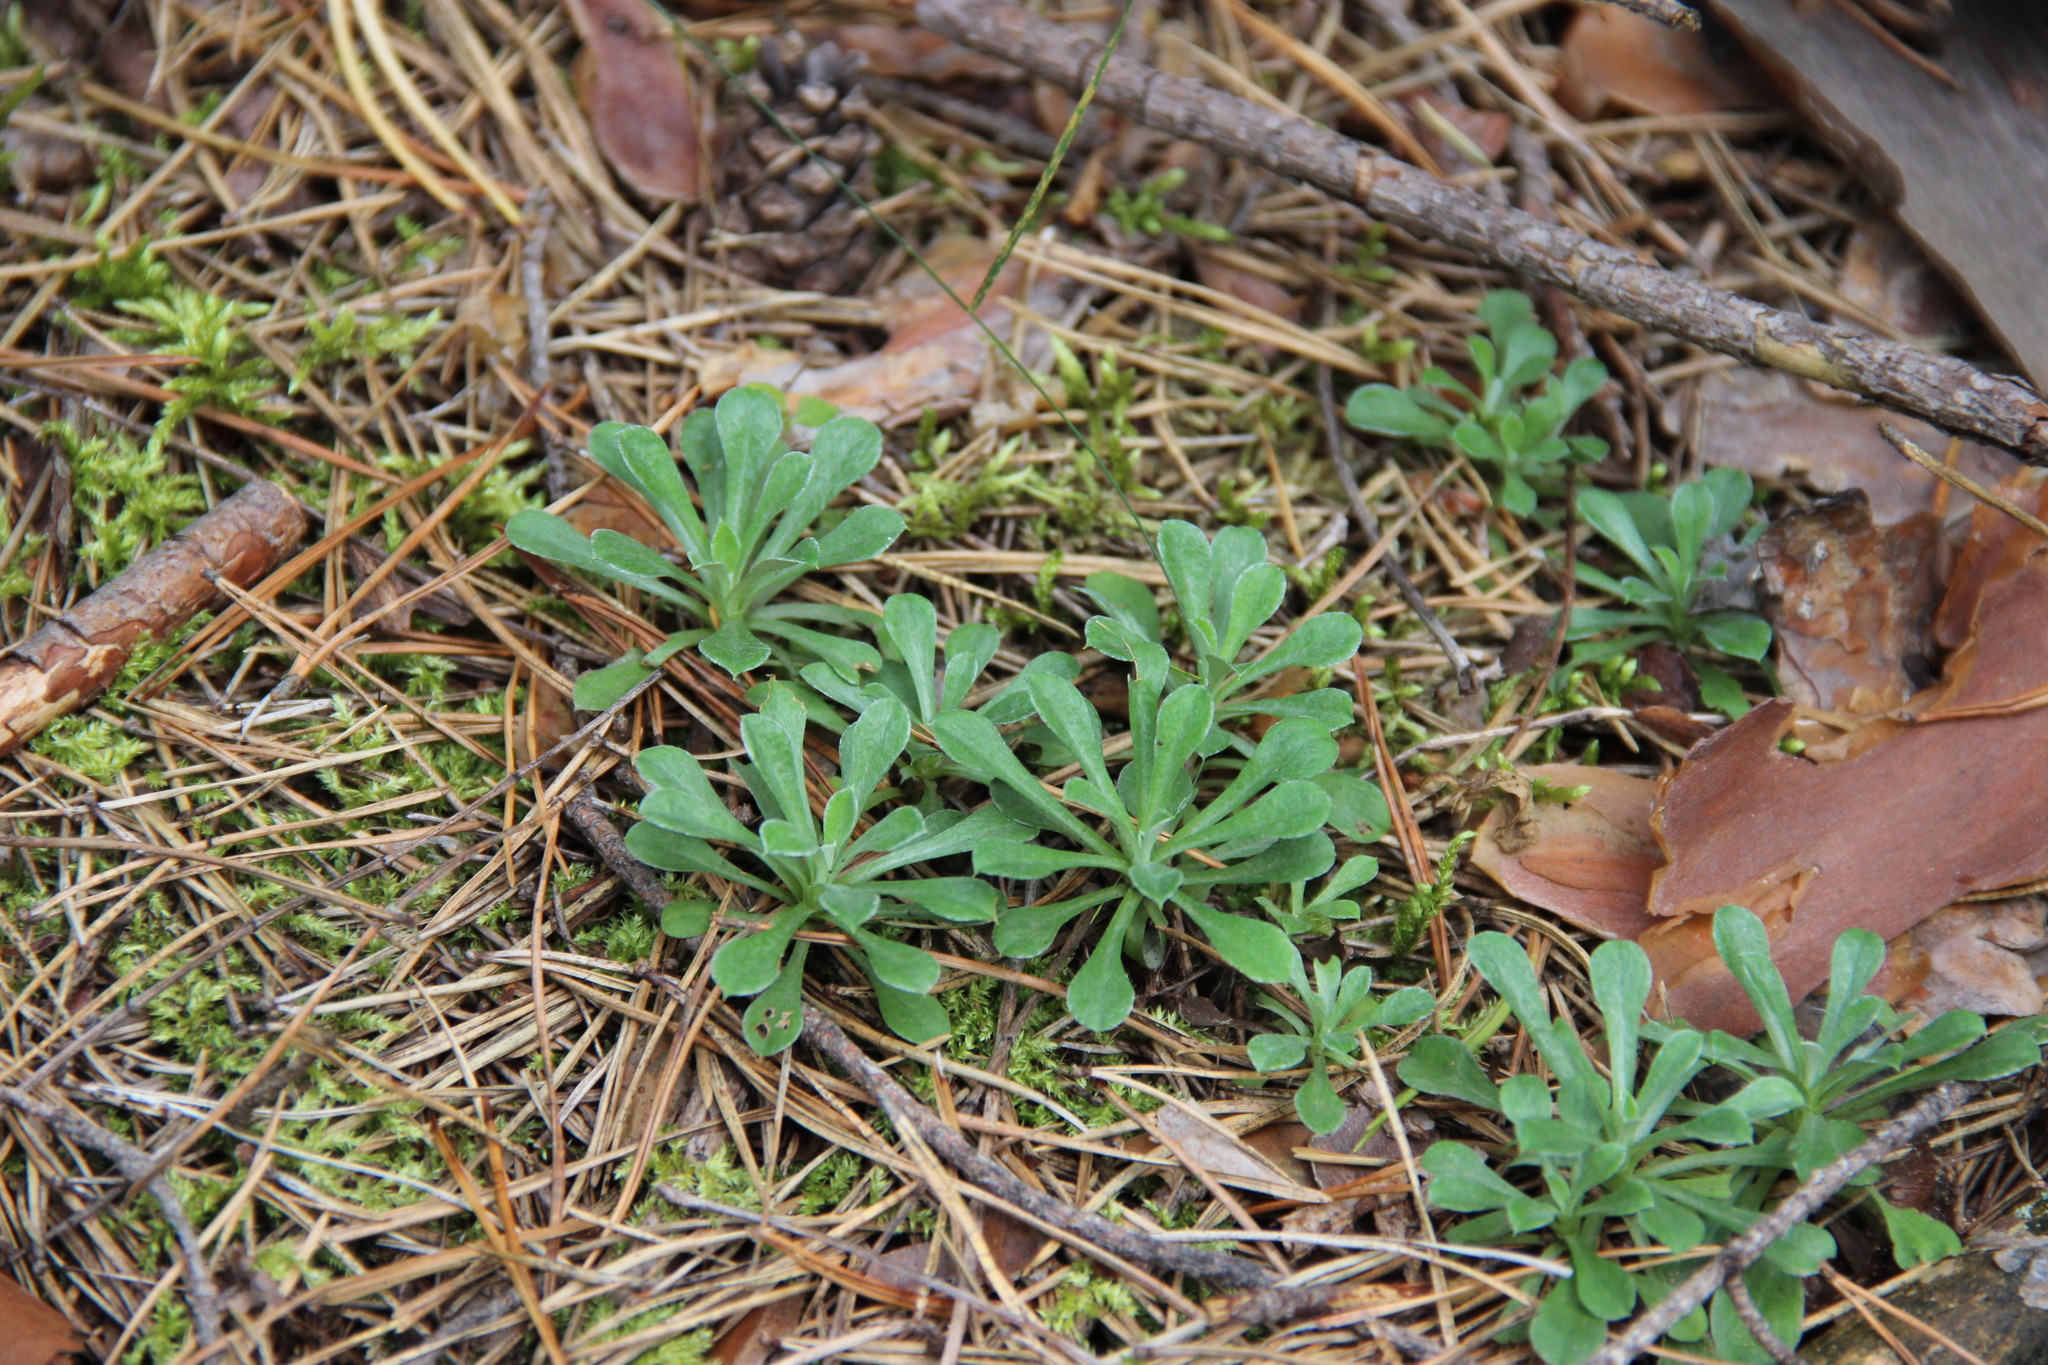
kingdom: Plantae
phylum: Tracheophyta
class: Magnoliopsida
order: Asterales
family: Asteraceae
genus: Antennaria
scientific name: Antennaria dioica
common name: Mountain everlasting
